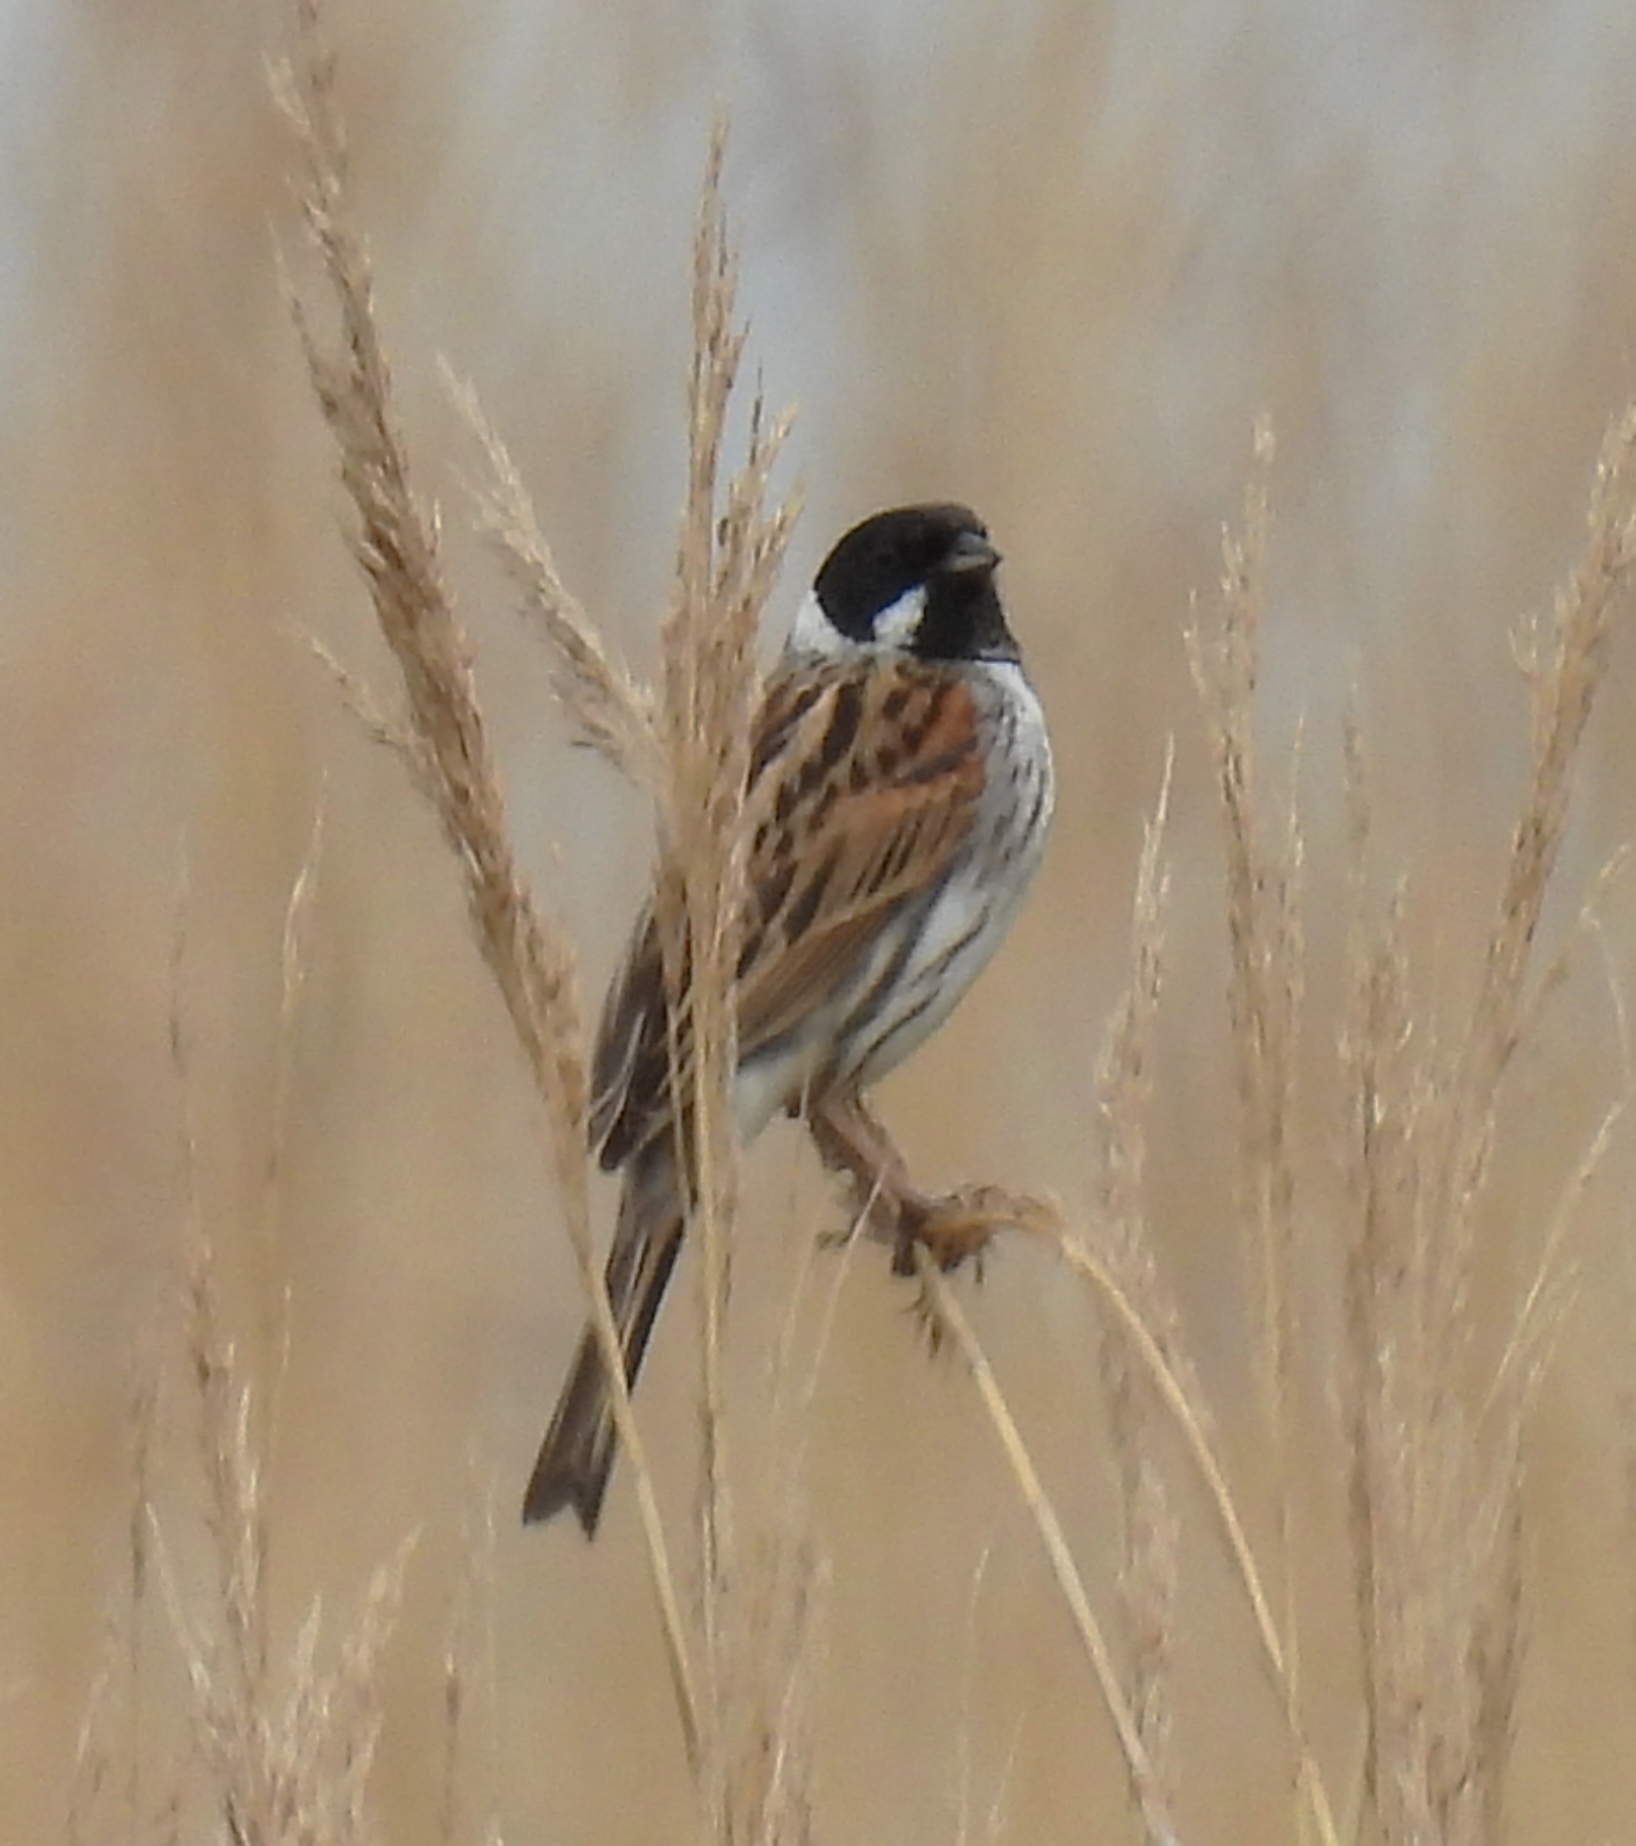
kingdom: Animalia
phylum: Chordata
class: Aves
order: Passeriformes
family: Emberizidae
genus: Emberiza
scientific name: Emberiza schoeniclus
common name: Reed bunting
